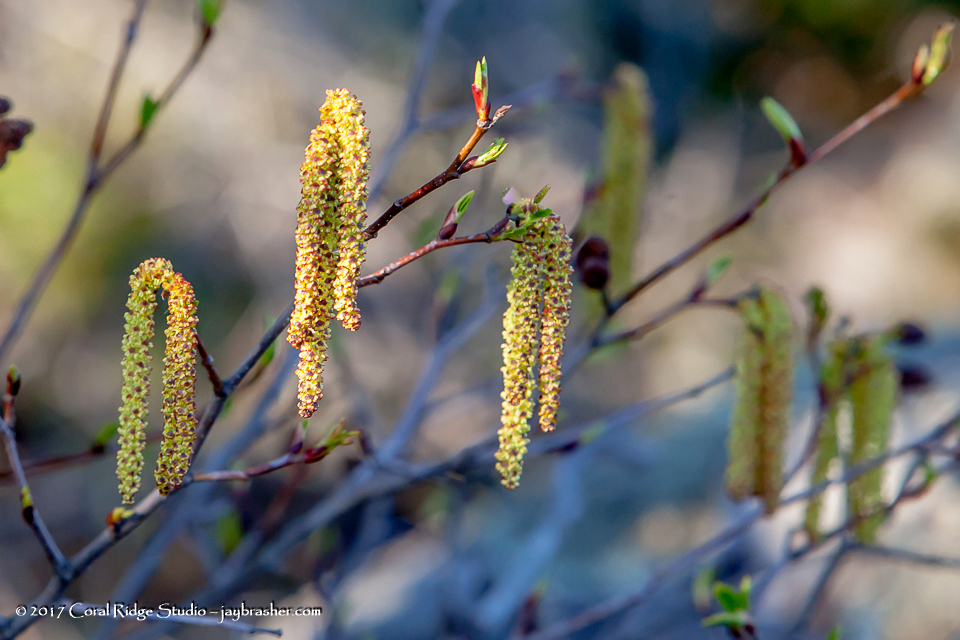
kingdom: Plantae
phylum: Tracheophyta
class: Magnoliopsida
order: Fagales
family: Betulaceae
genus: Alnus
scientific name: Alnus alnobetula
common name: Green alder
